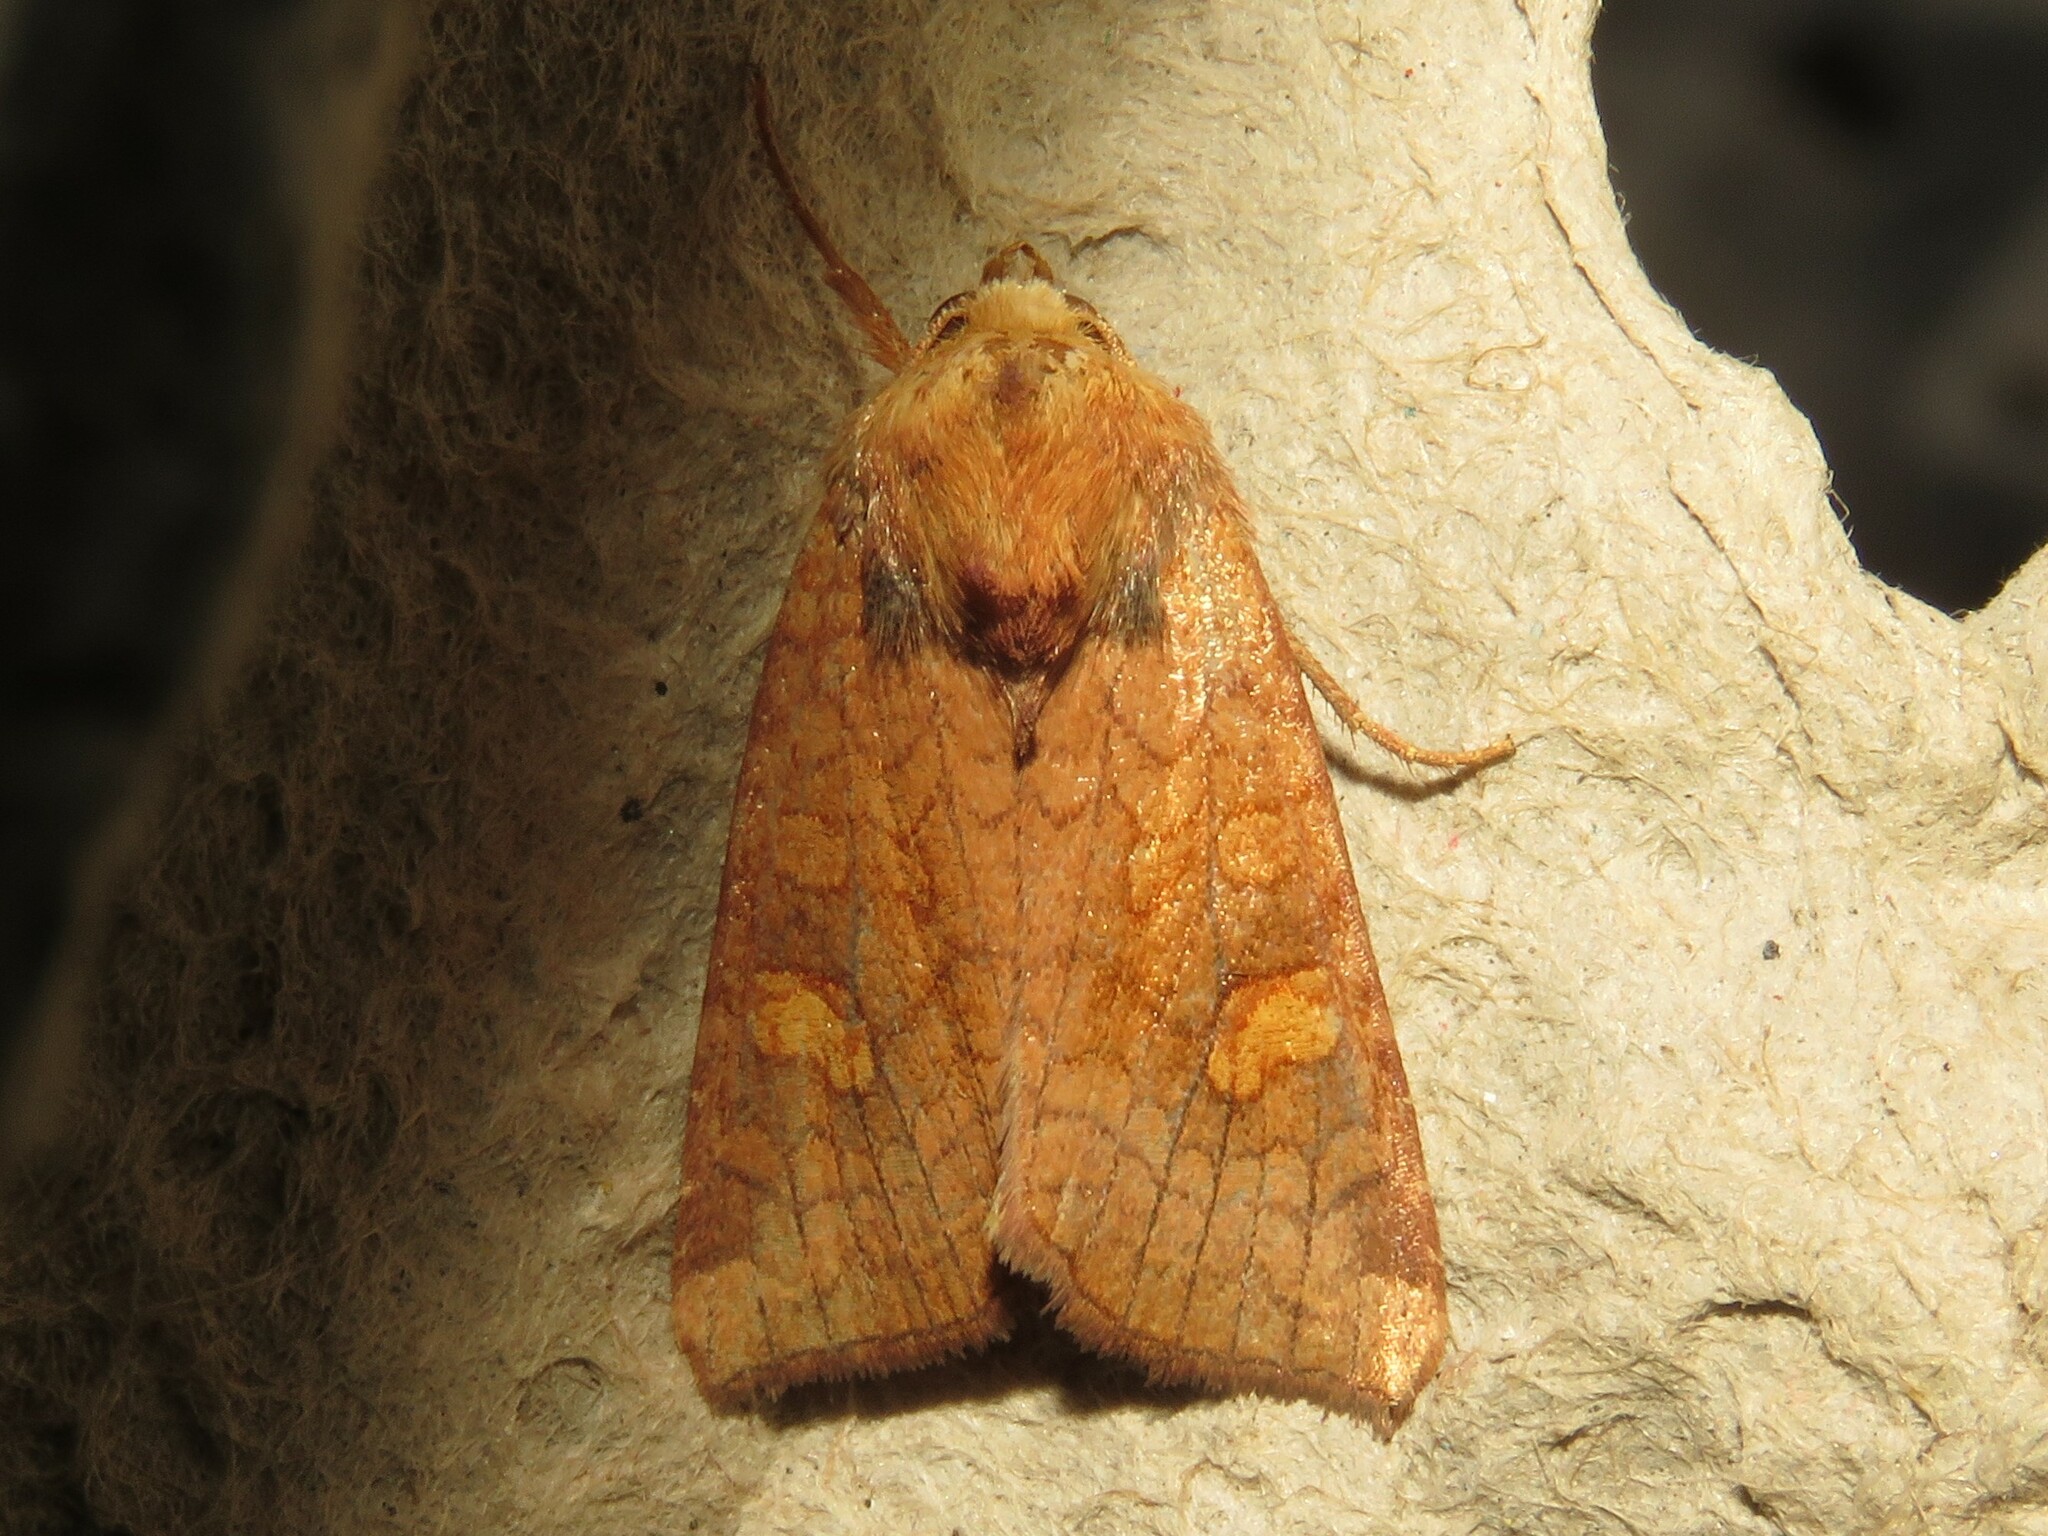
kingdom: Animalia
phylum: Arthropoda
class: Insecta
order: Lepidoptera
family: Noctuidae
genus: Amphipoea
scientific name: Amphipoea americana
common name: American ear moth
